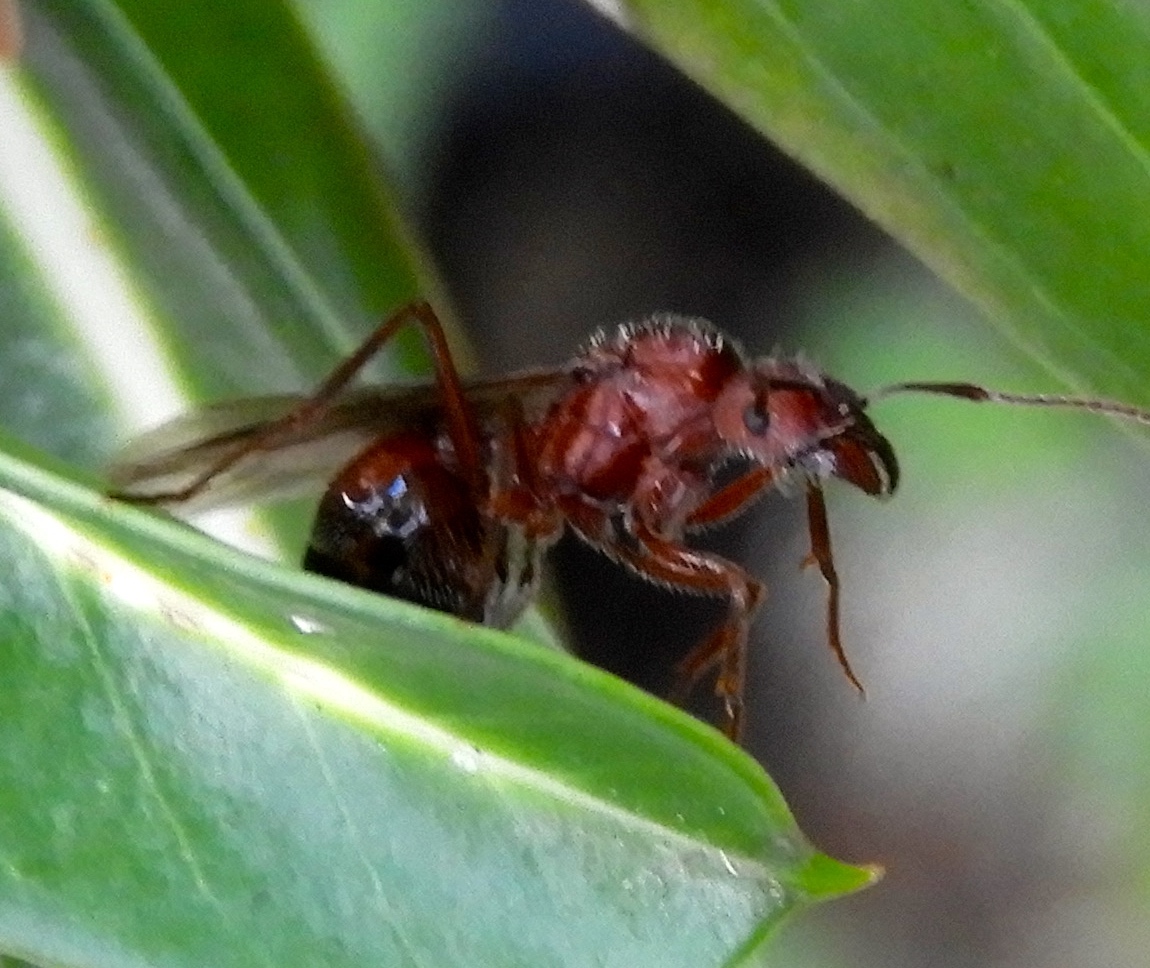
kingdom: Animalia
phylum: Arthropoda
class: Insecta
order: Hymenoptera
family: Formicidae
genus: Novomessor
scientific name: Novomessor albisetosa
